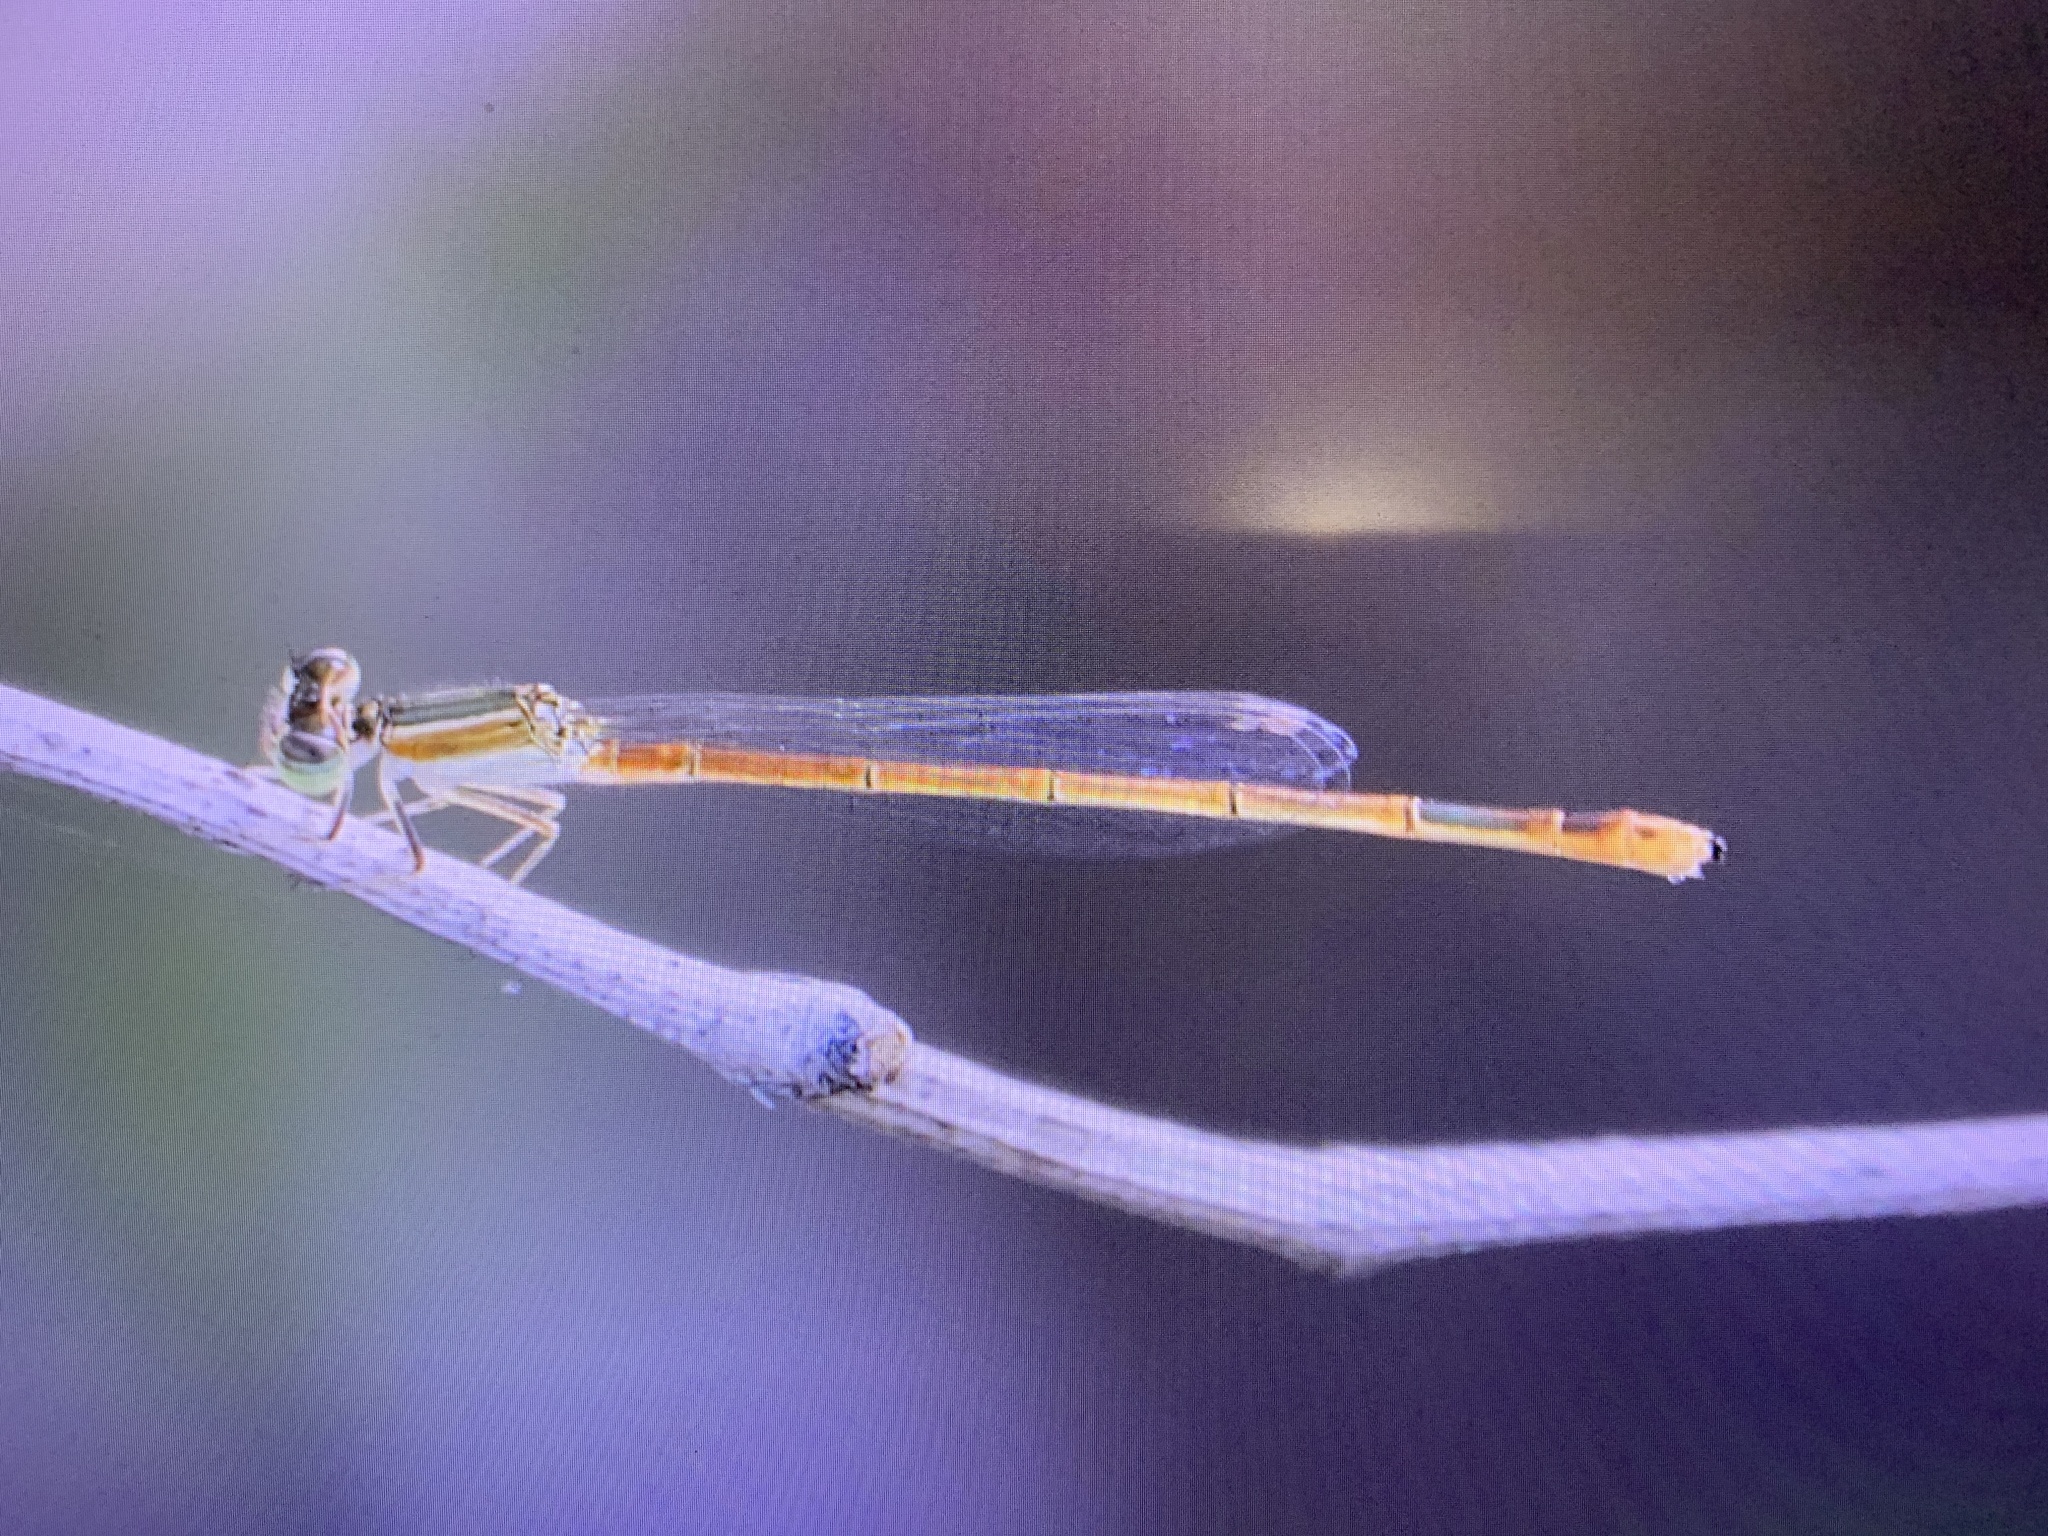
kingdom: Animalia
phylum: Arthropoda
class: Insecta
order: Odonata
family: Coenagrionidae
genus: Ischnura
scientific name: Ischnura hastata
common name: Citrine forktail
